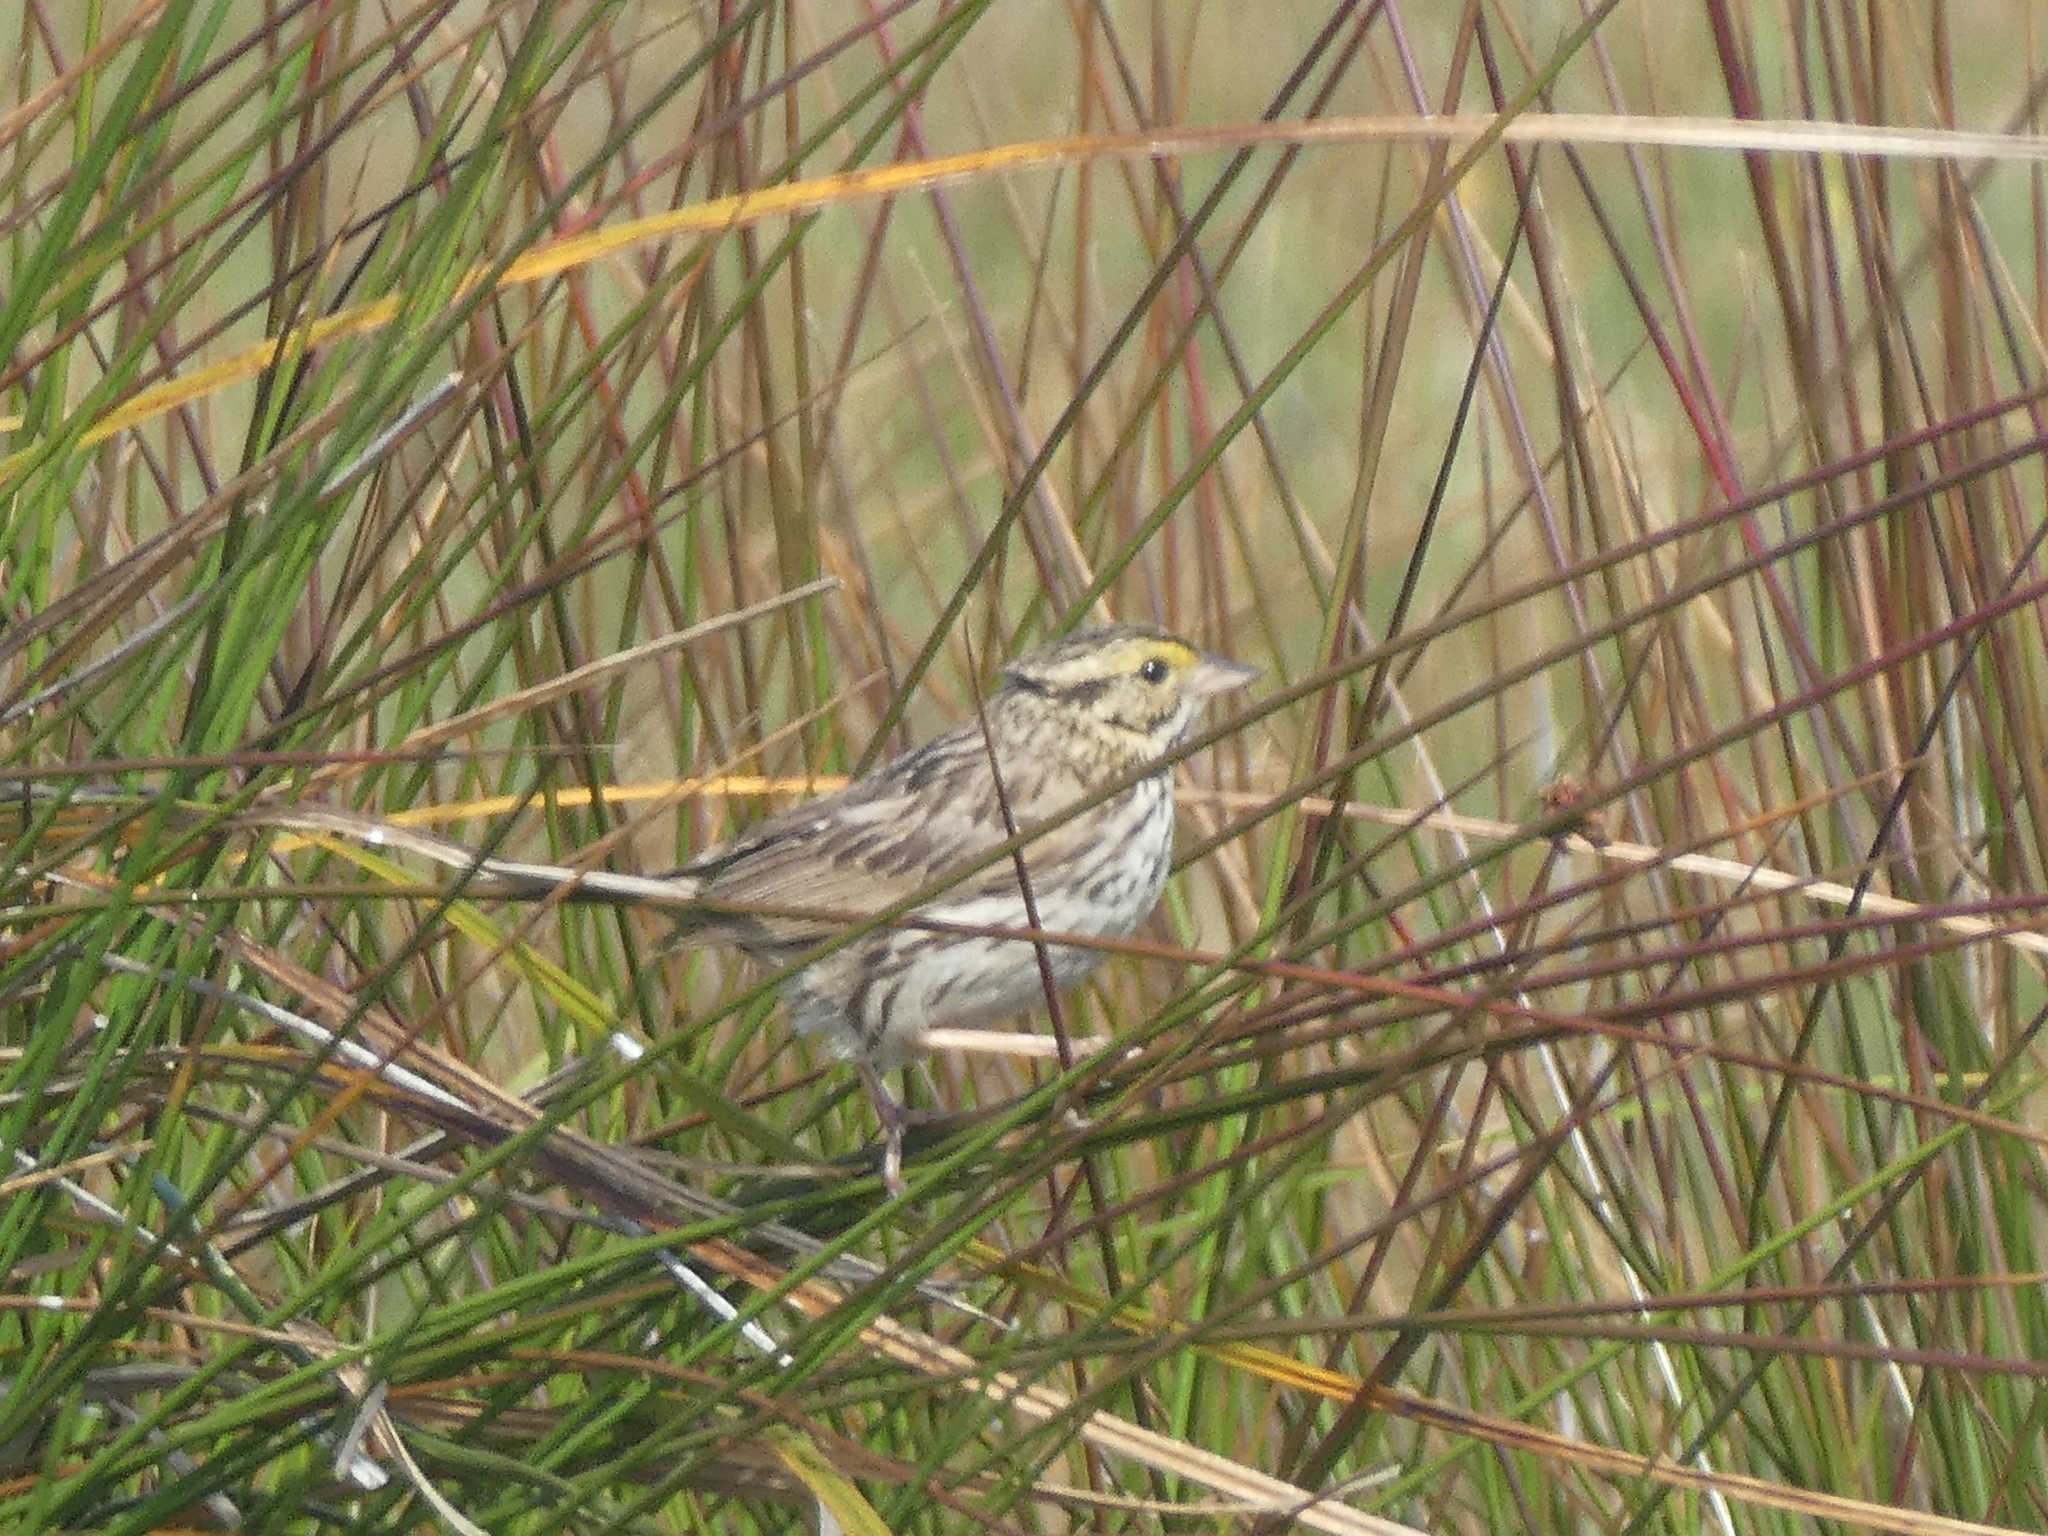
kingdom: Animalia
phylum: Chordata
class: Aves
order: Passeriformes
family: Passerellidae
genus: Passerculus
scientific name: Passerculus sandwichensis
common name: Savannah sparrow
